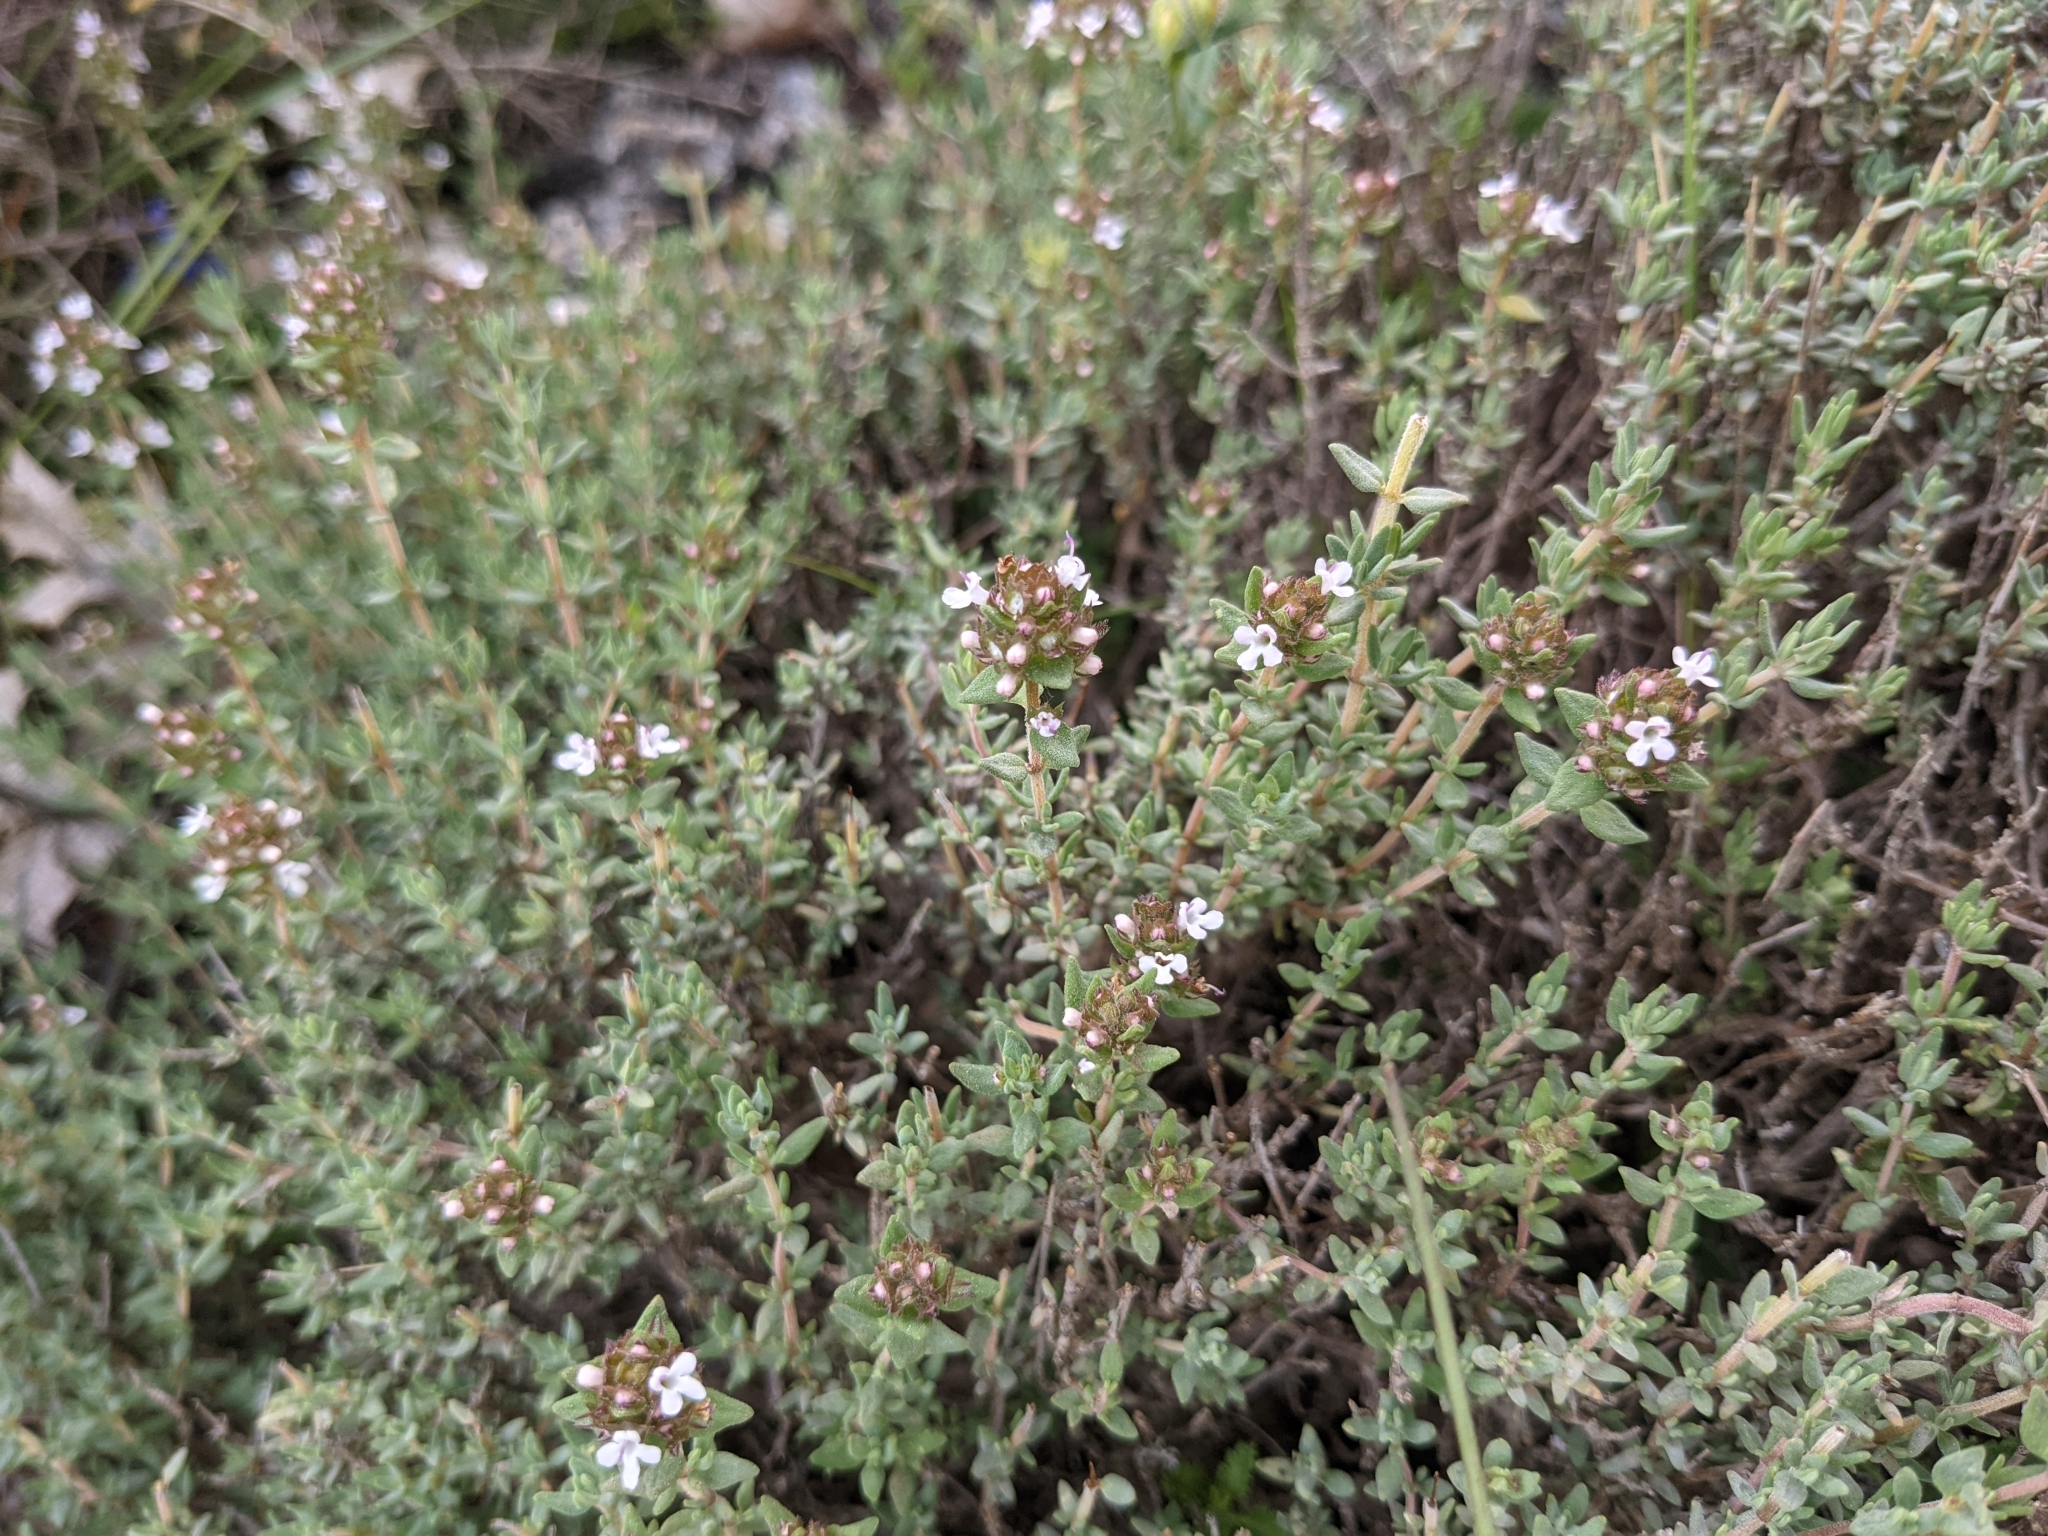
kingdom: Plantae
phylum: Tracheophyta
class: Magnoliopsida
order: Lamiales
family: Lamiaceae
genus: Thymus
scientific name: Thymus vulgaris
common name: Garden thyme
